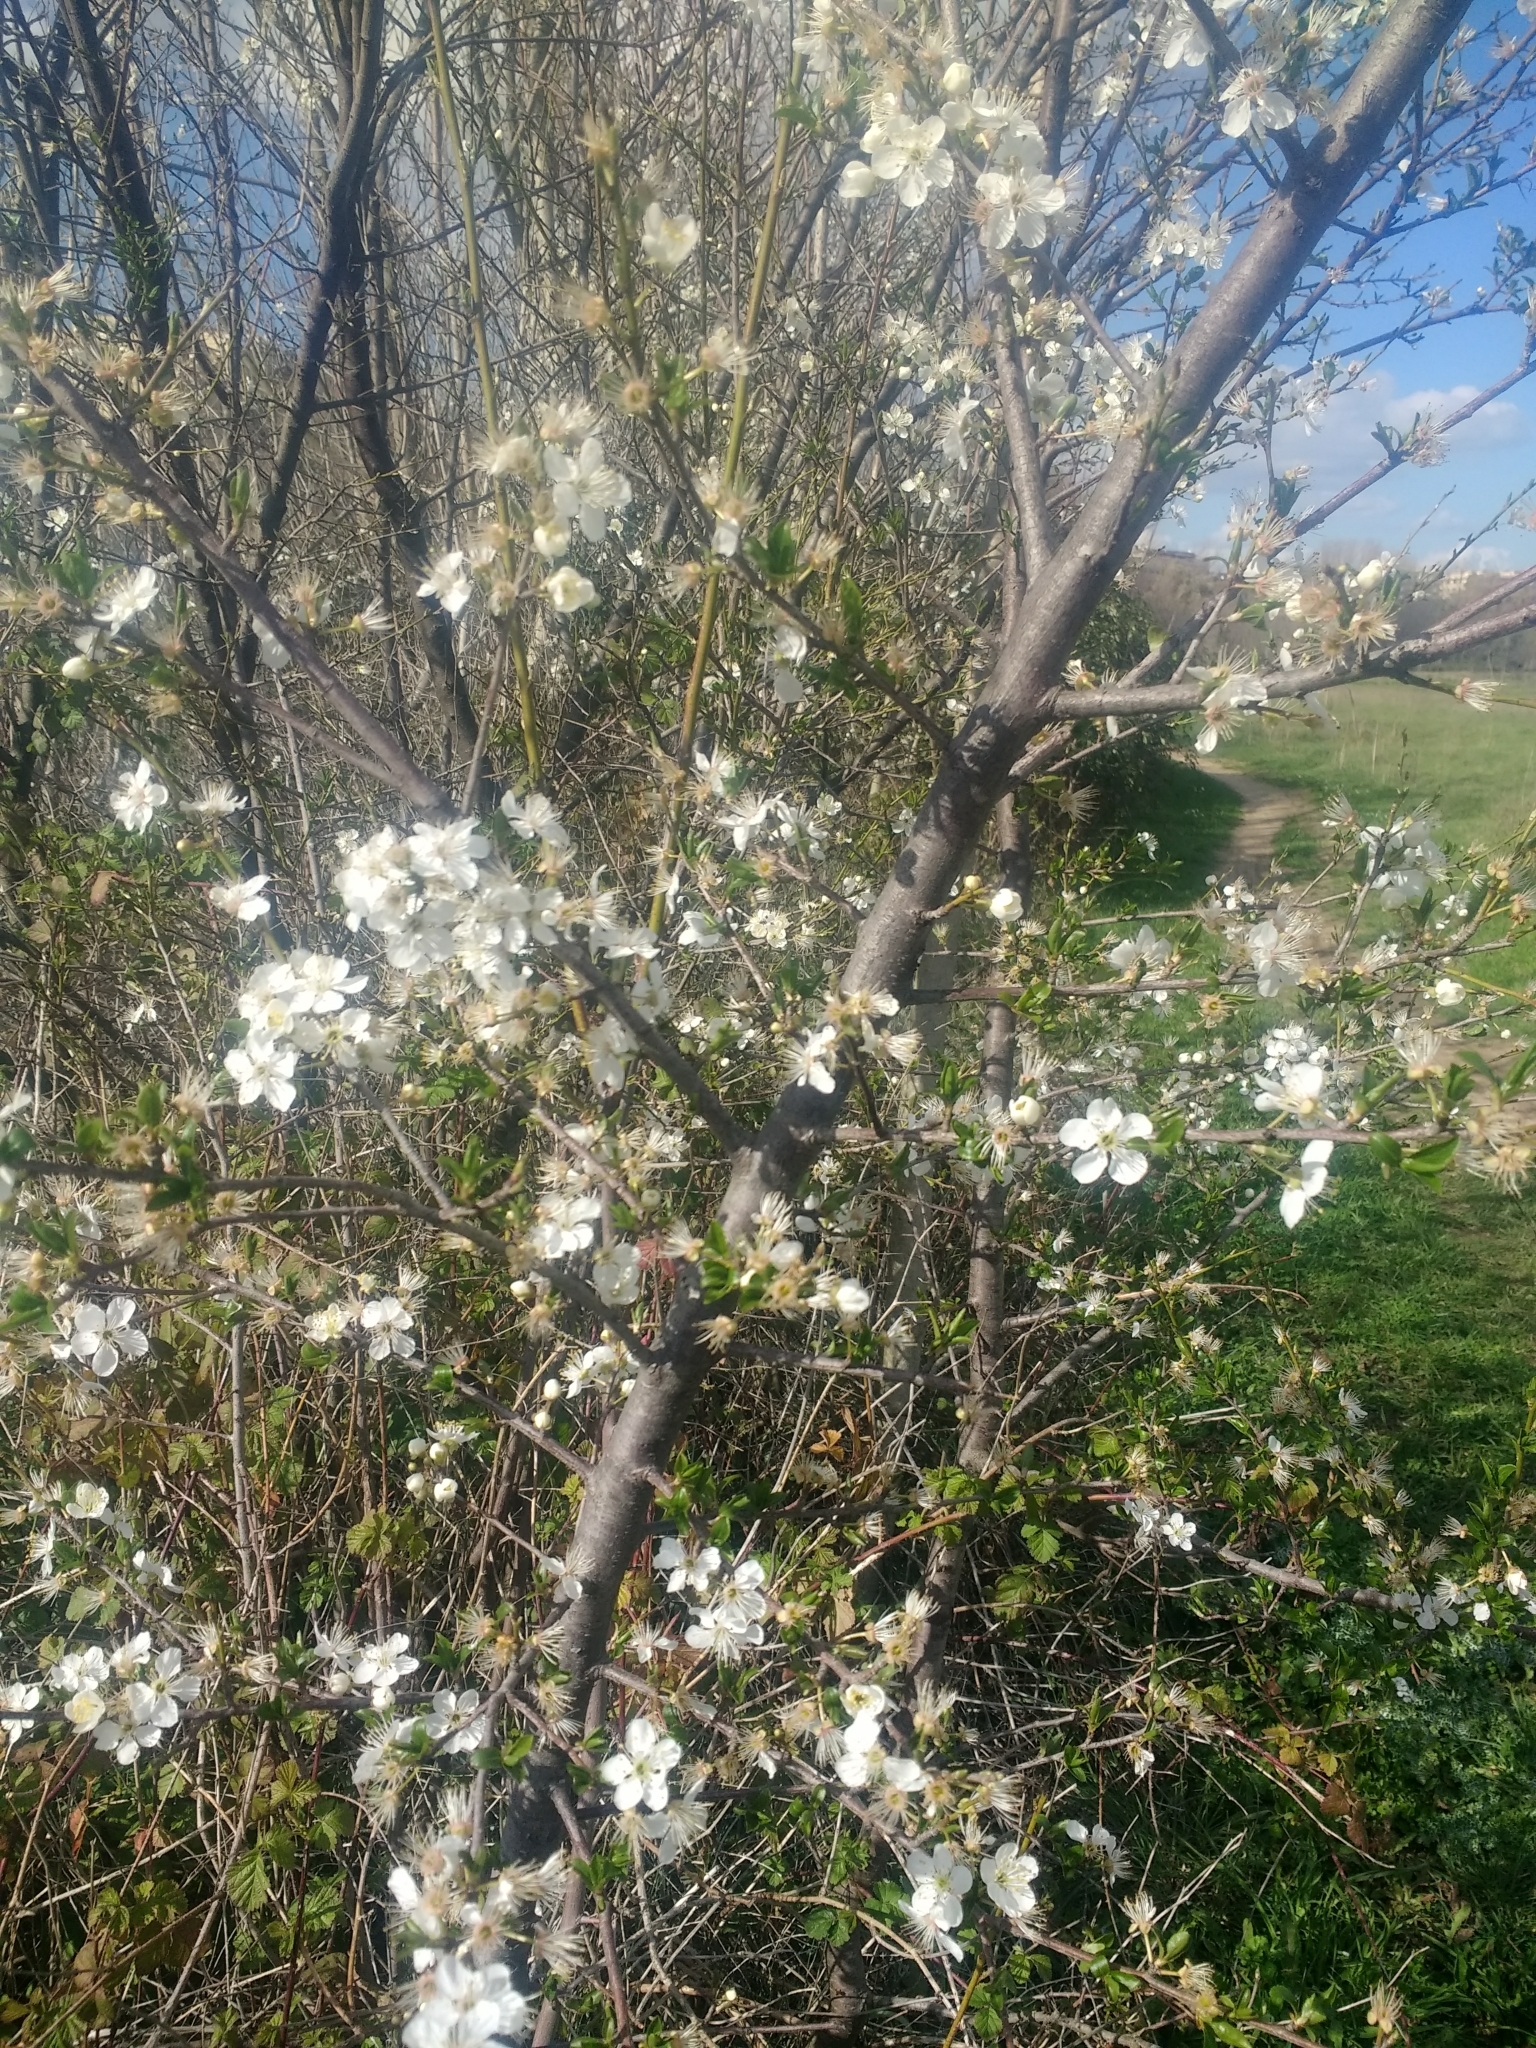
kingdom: Plantae
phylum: Tracheophyta
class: Magnoliopsida
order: Rosales
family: Rosaceae
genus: Prunus
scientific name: Prunus spinosa
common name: Blackthorn
